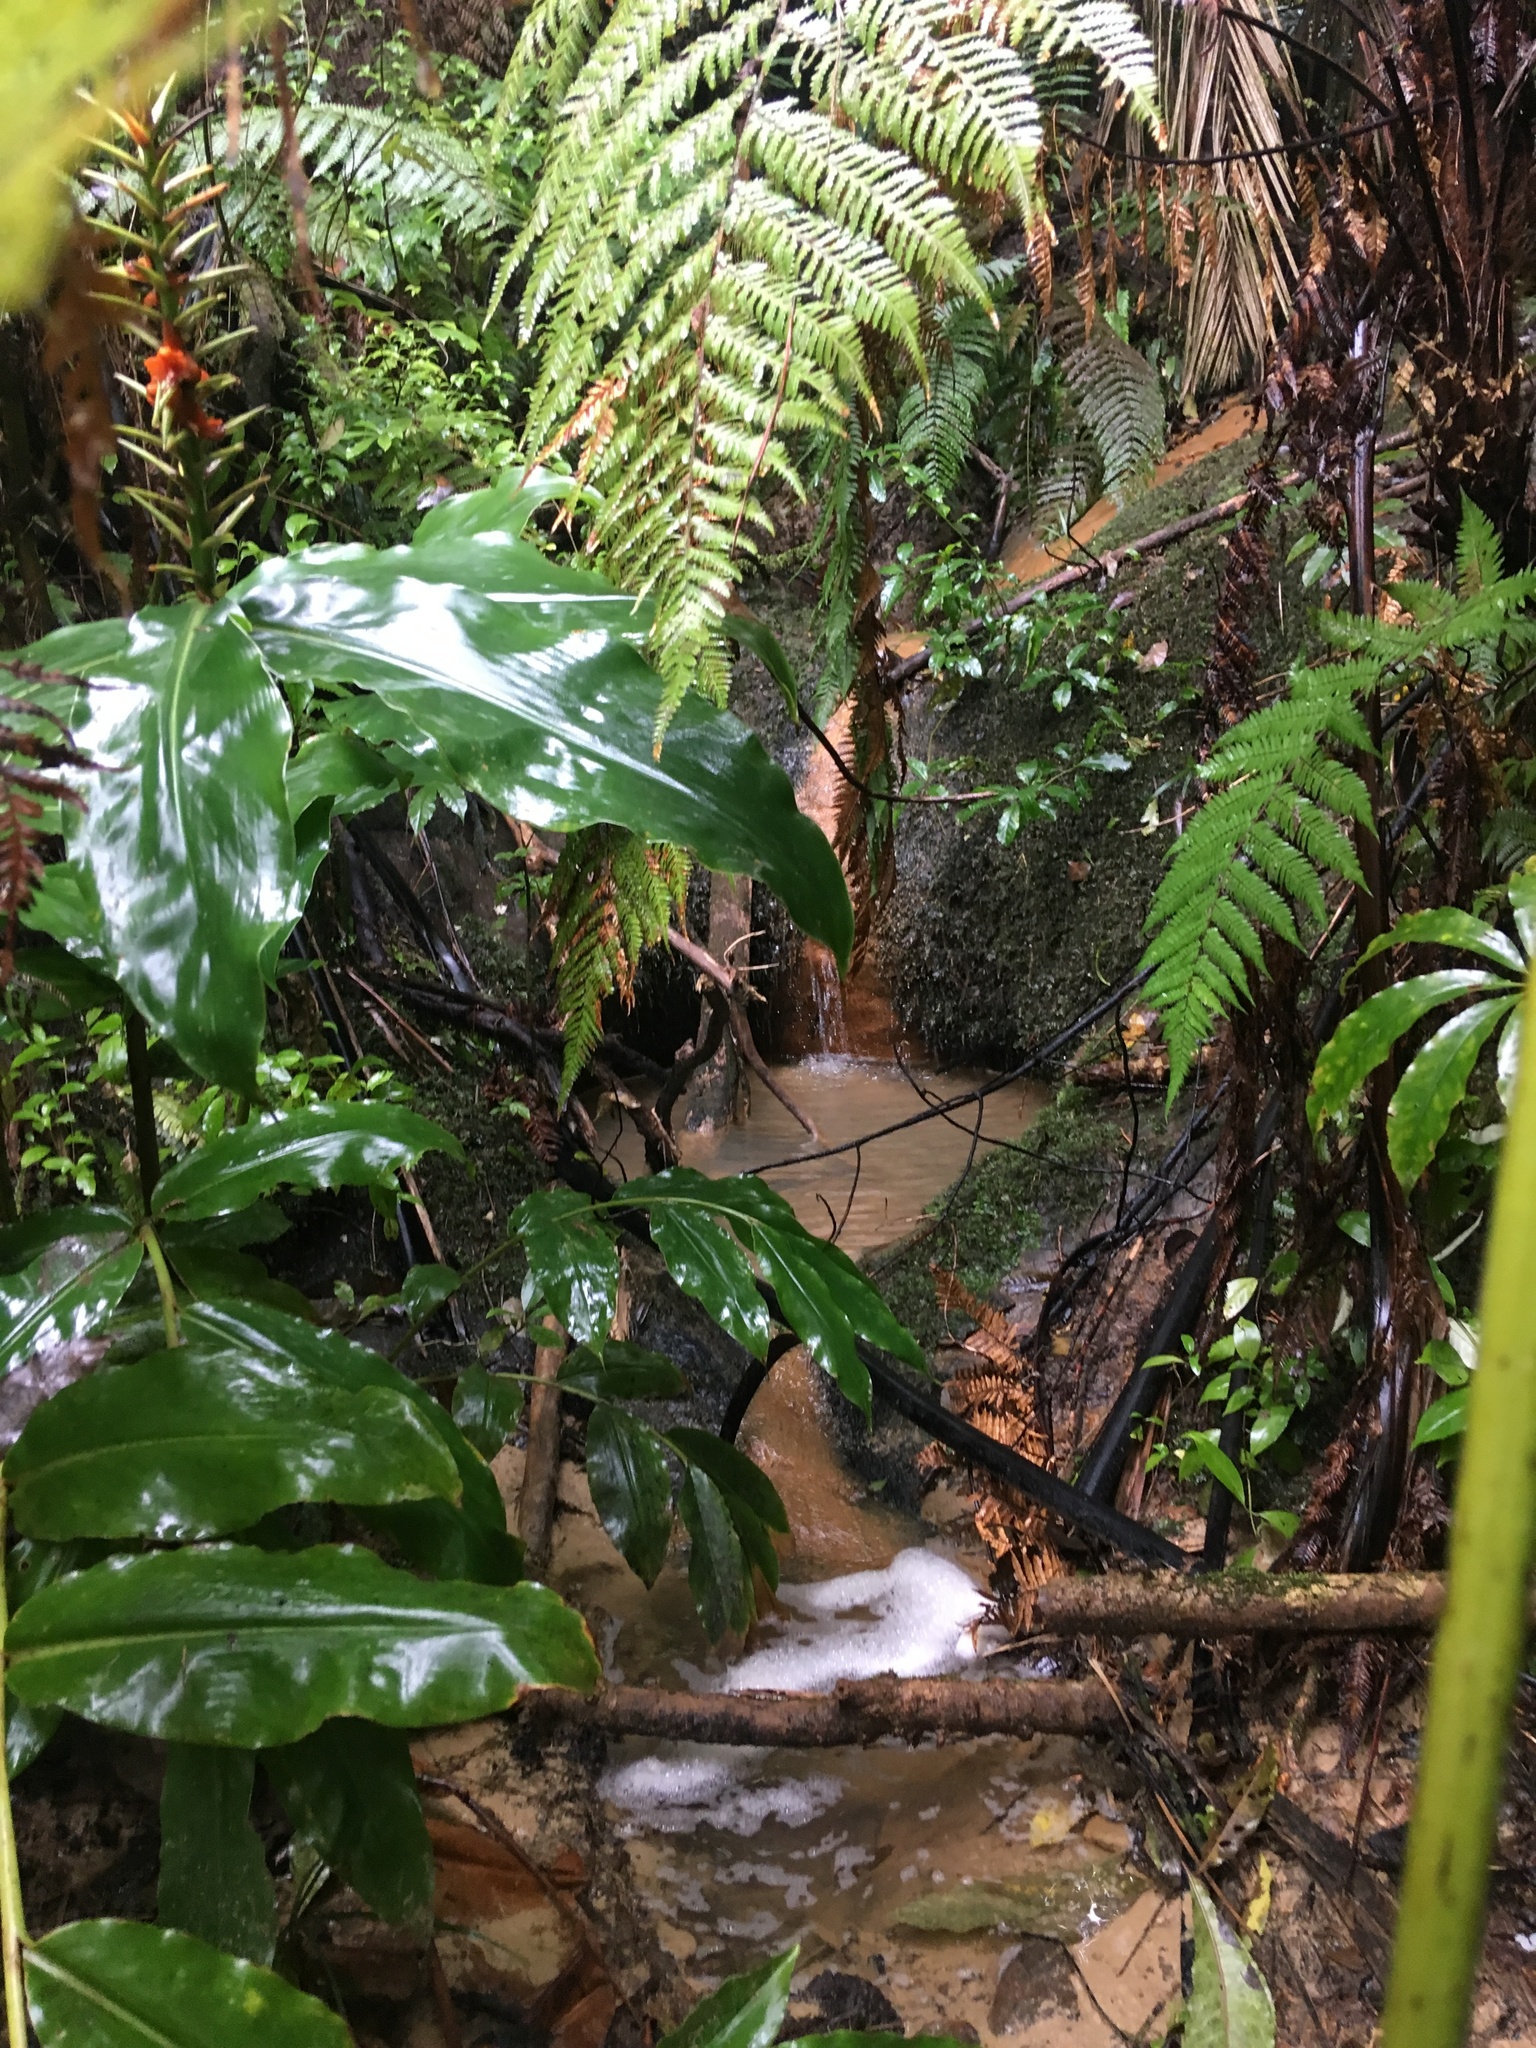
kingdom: Plantae
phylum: Tracheophyta
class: Liliopsida
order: Zingiberales
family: Zingiberaceae
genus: Hedychium
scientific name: Hedychium gardnerianum
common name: Himalayan ginger
